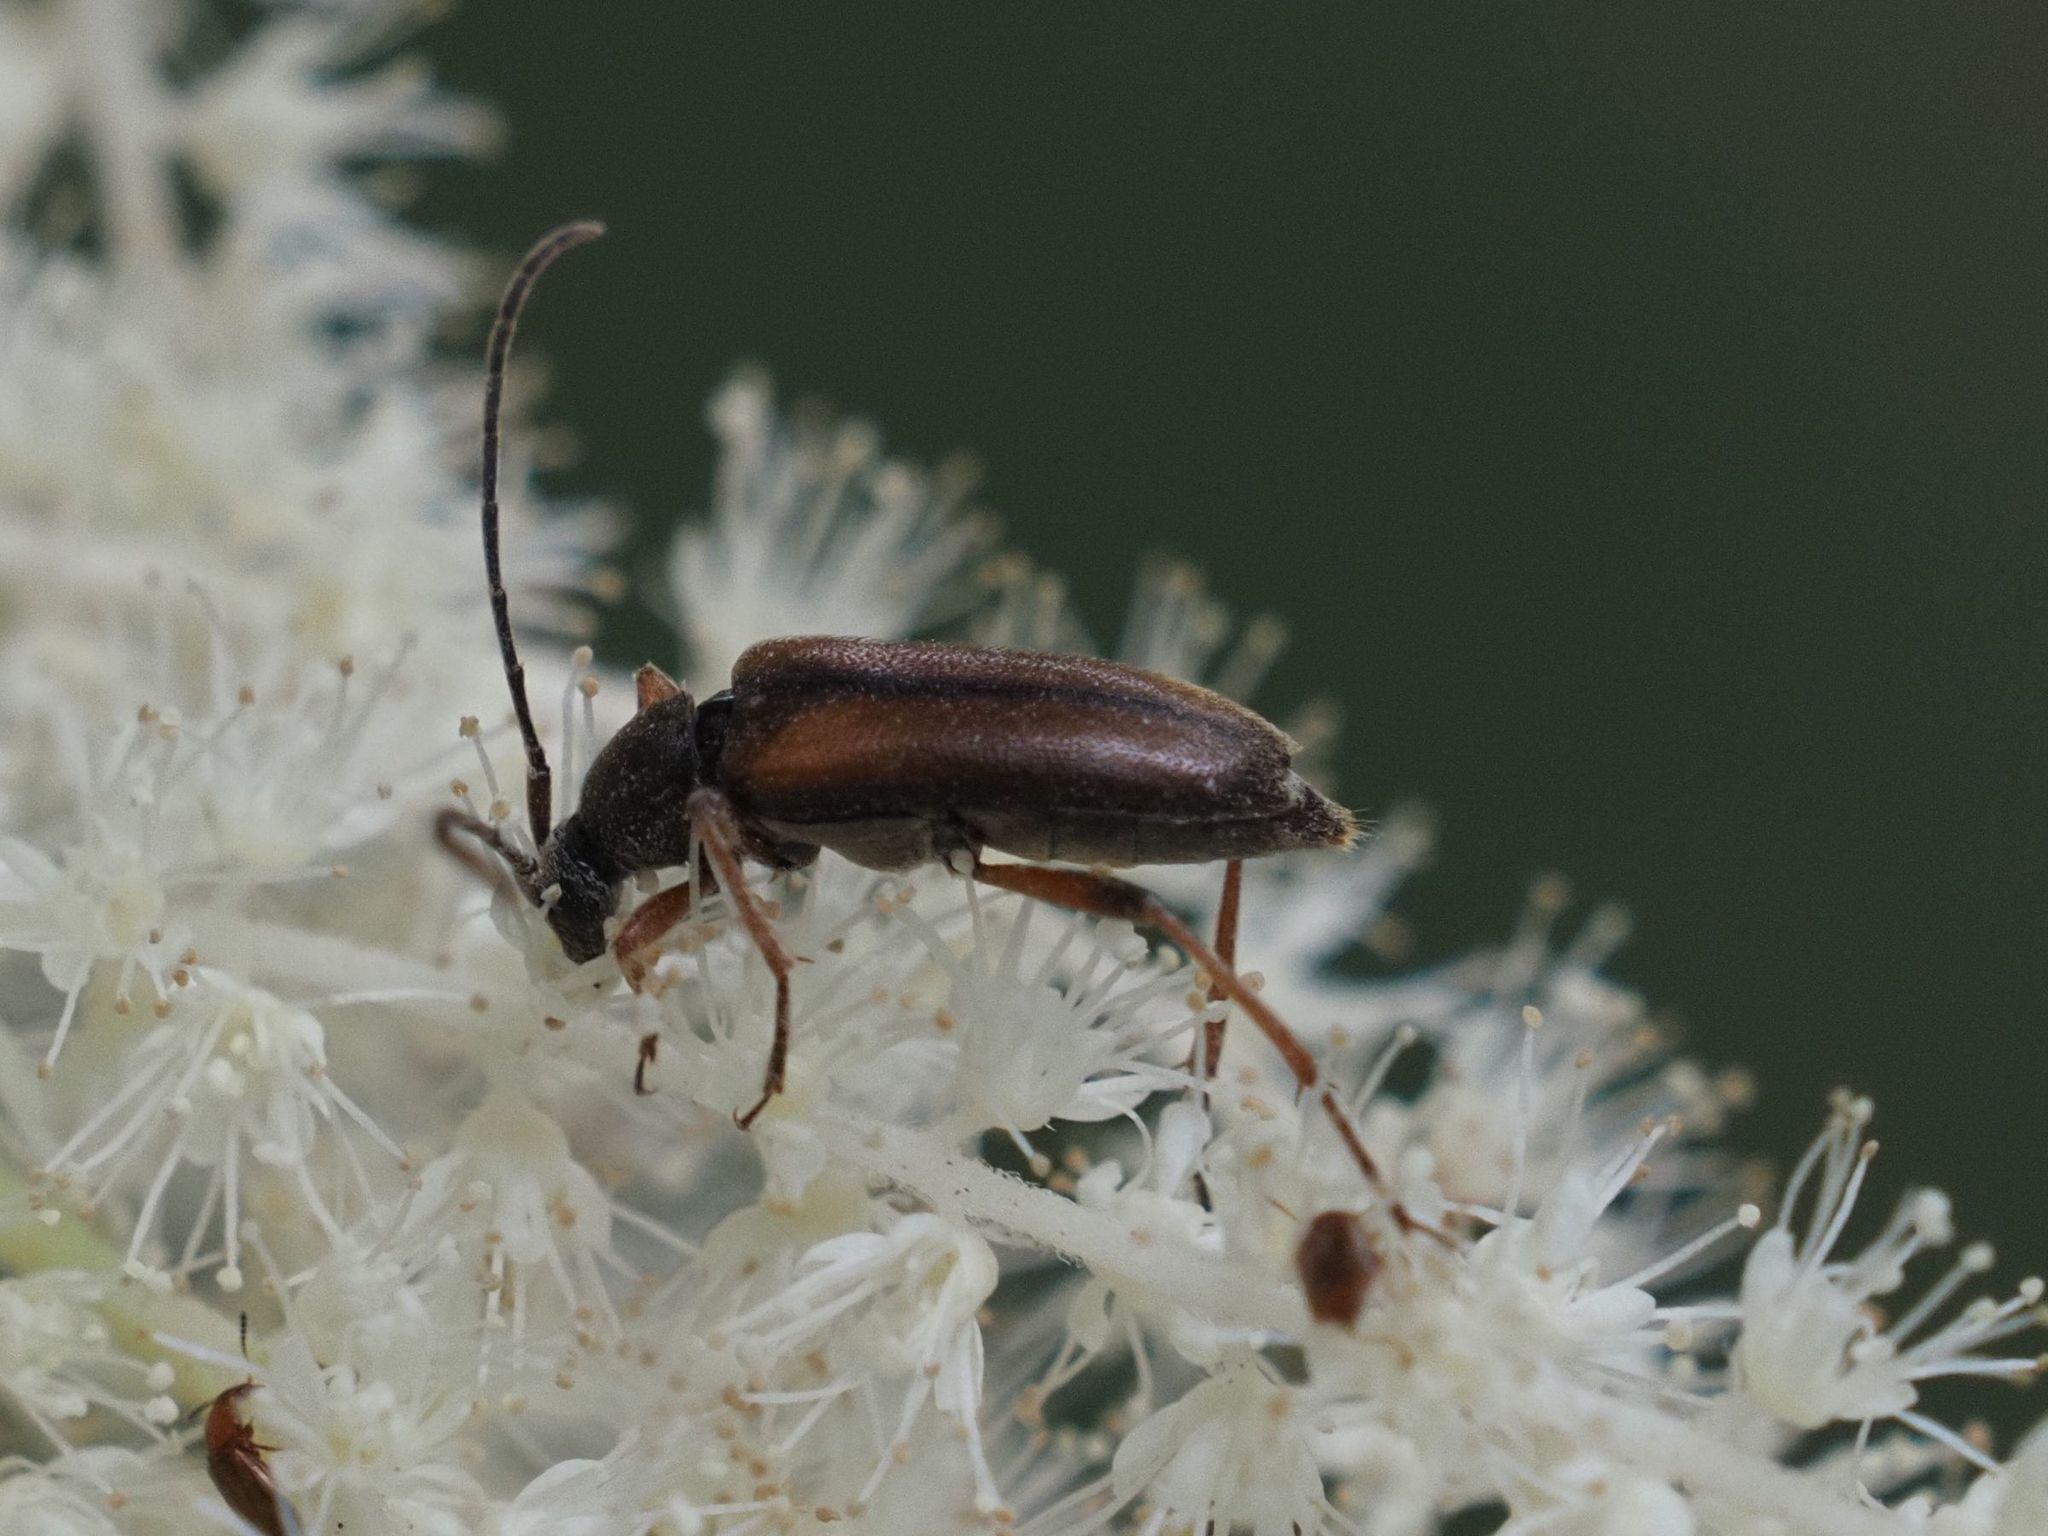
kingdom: Animalia
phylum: Arthropoda
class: Insecta
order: Coleoptera
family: Cerambycidae
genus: Alosterna
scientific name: Alosterna tabacicolor
